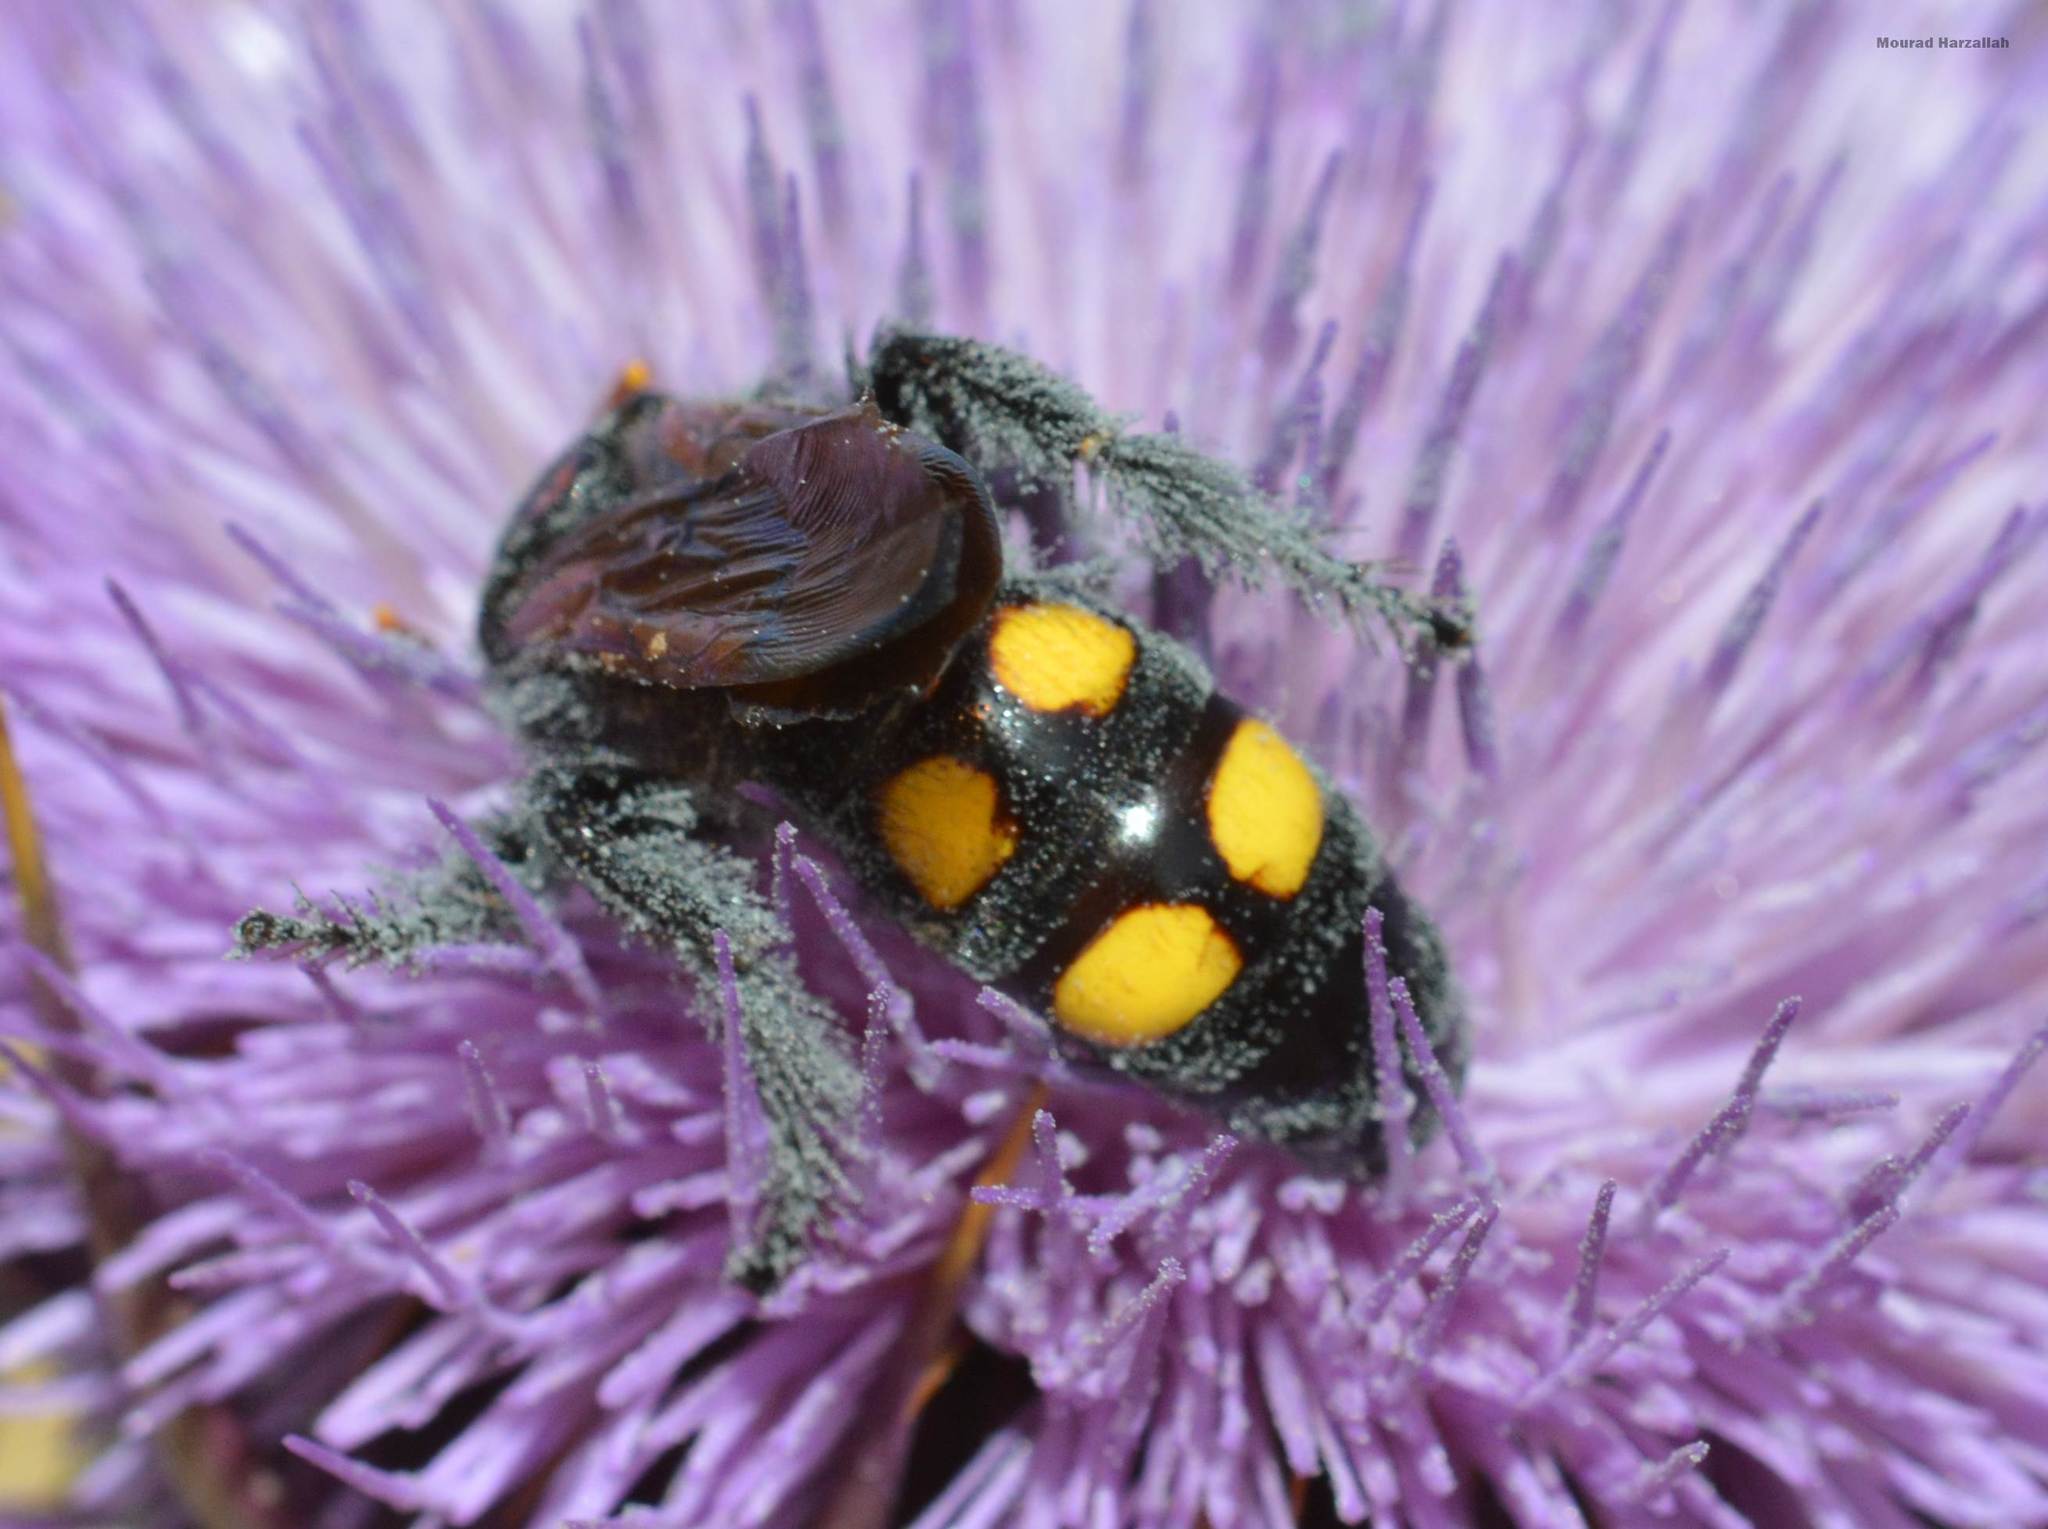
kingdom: Animalia
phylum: Arthropoda
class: Insecta
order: Hymenoptera
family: Scoliidae
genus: Megascolia
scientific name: Megascolia bidens
